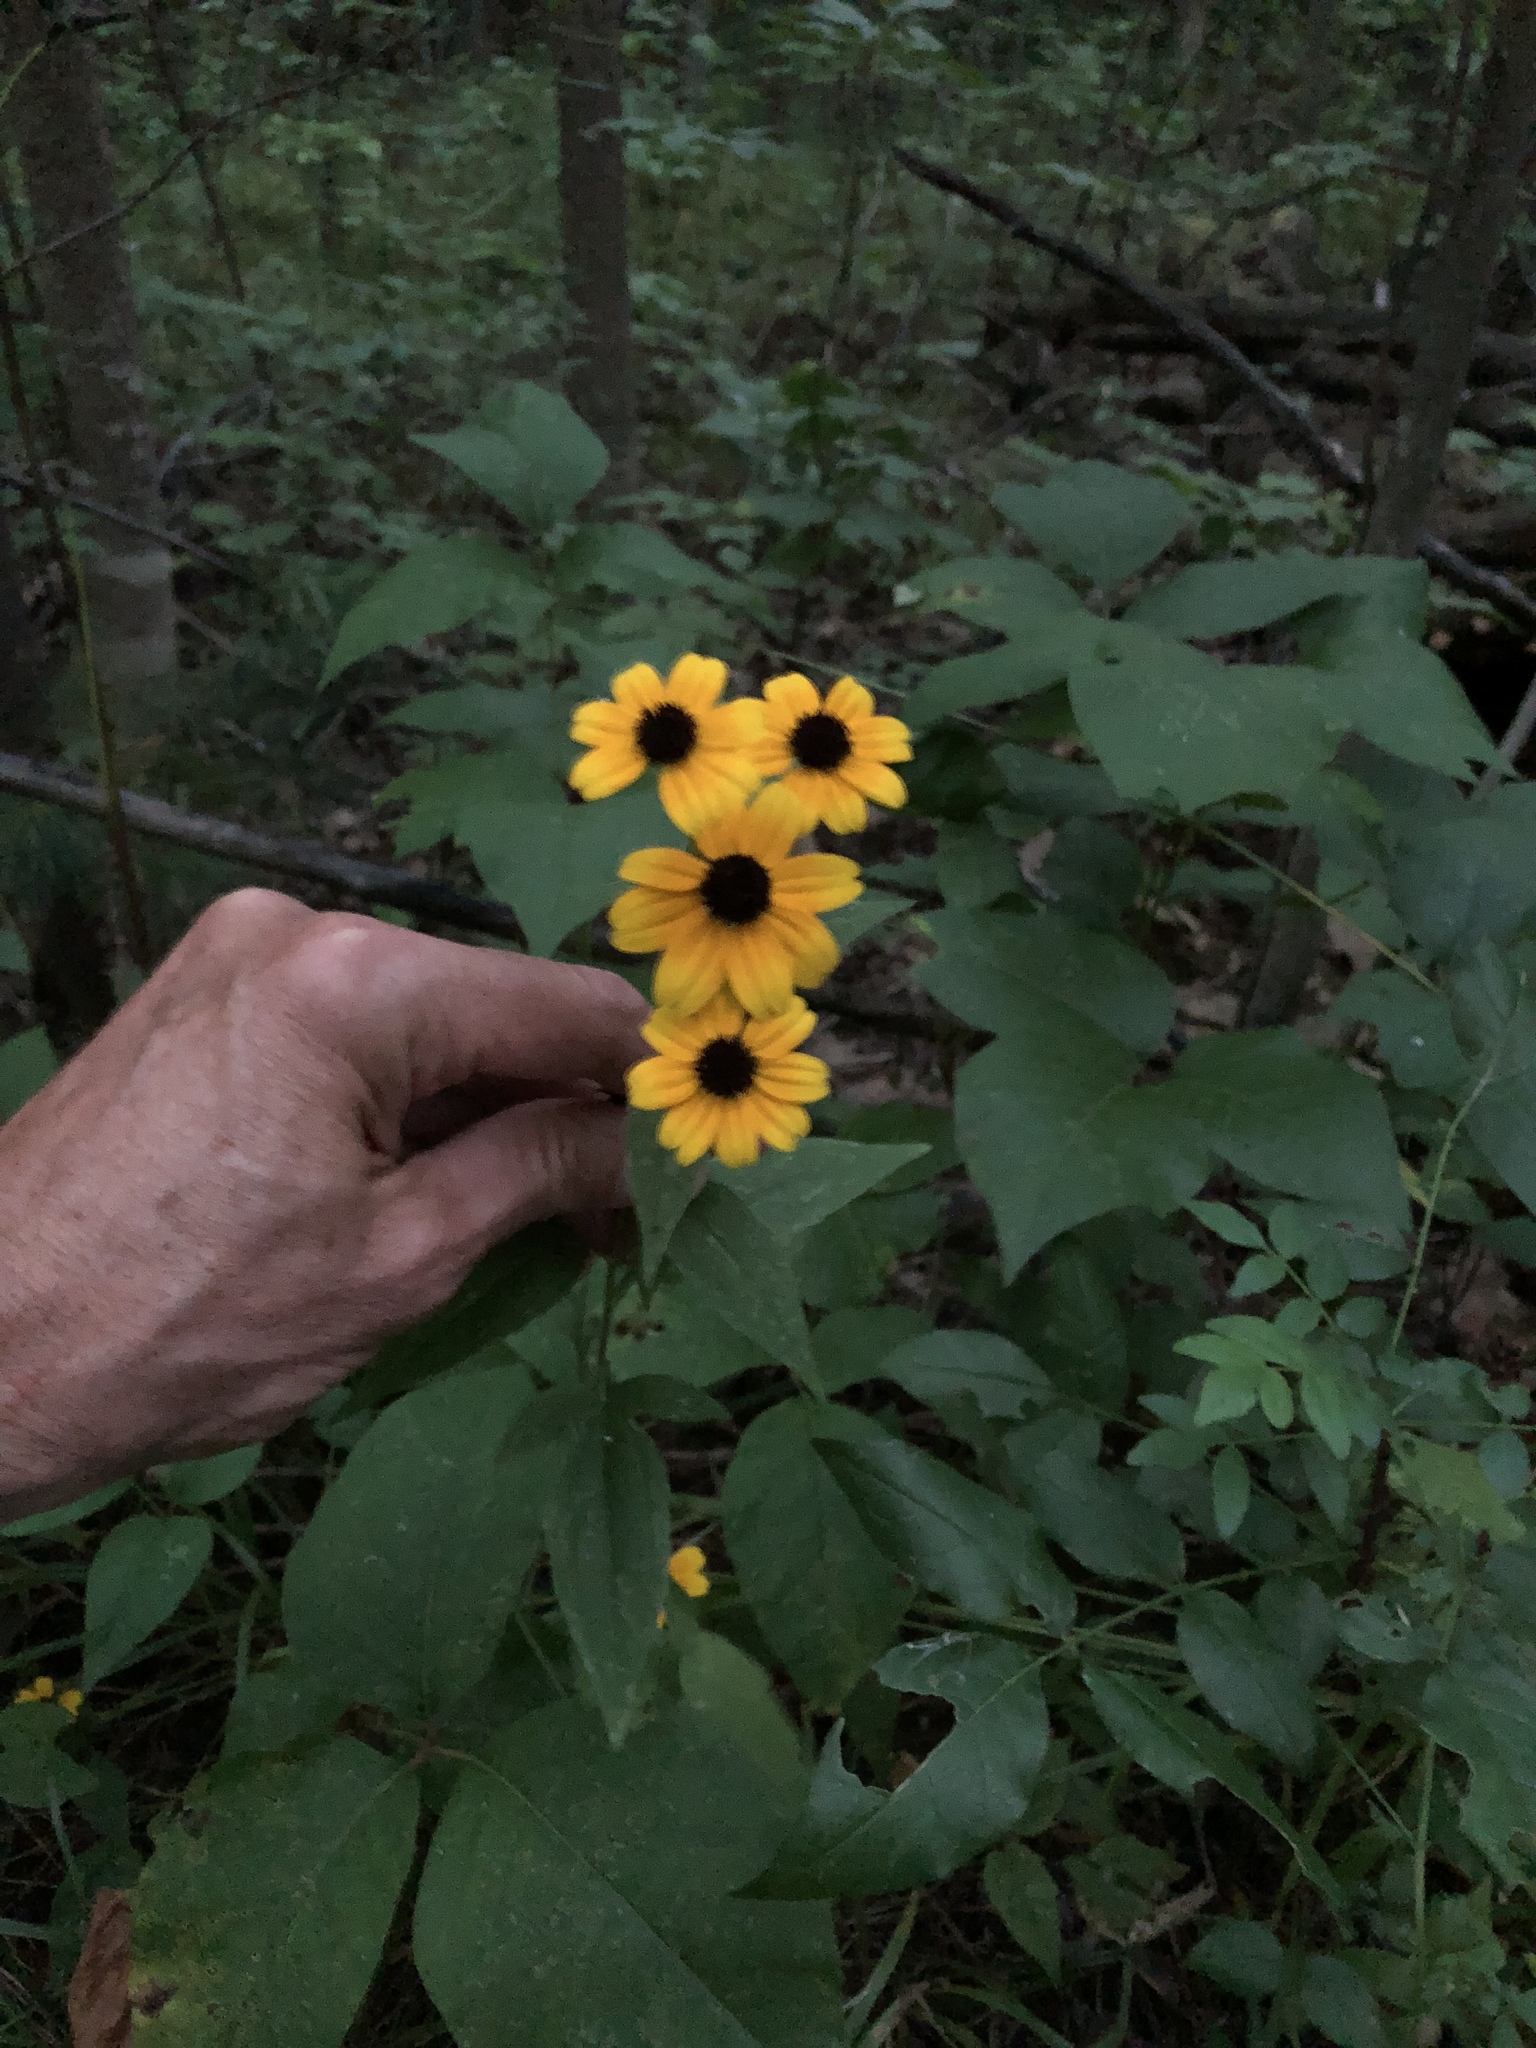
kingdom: Plantae
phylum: Tracheophyta
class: Magnoliopsida
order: Asterales
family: Asteraceae
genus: Rudbeckia
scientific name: Rudbeckia triloba
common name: Thin-leaved coneflower
